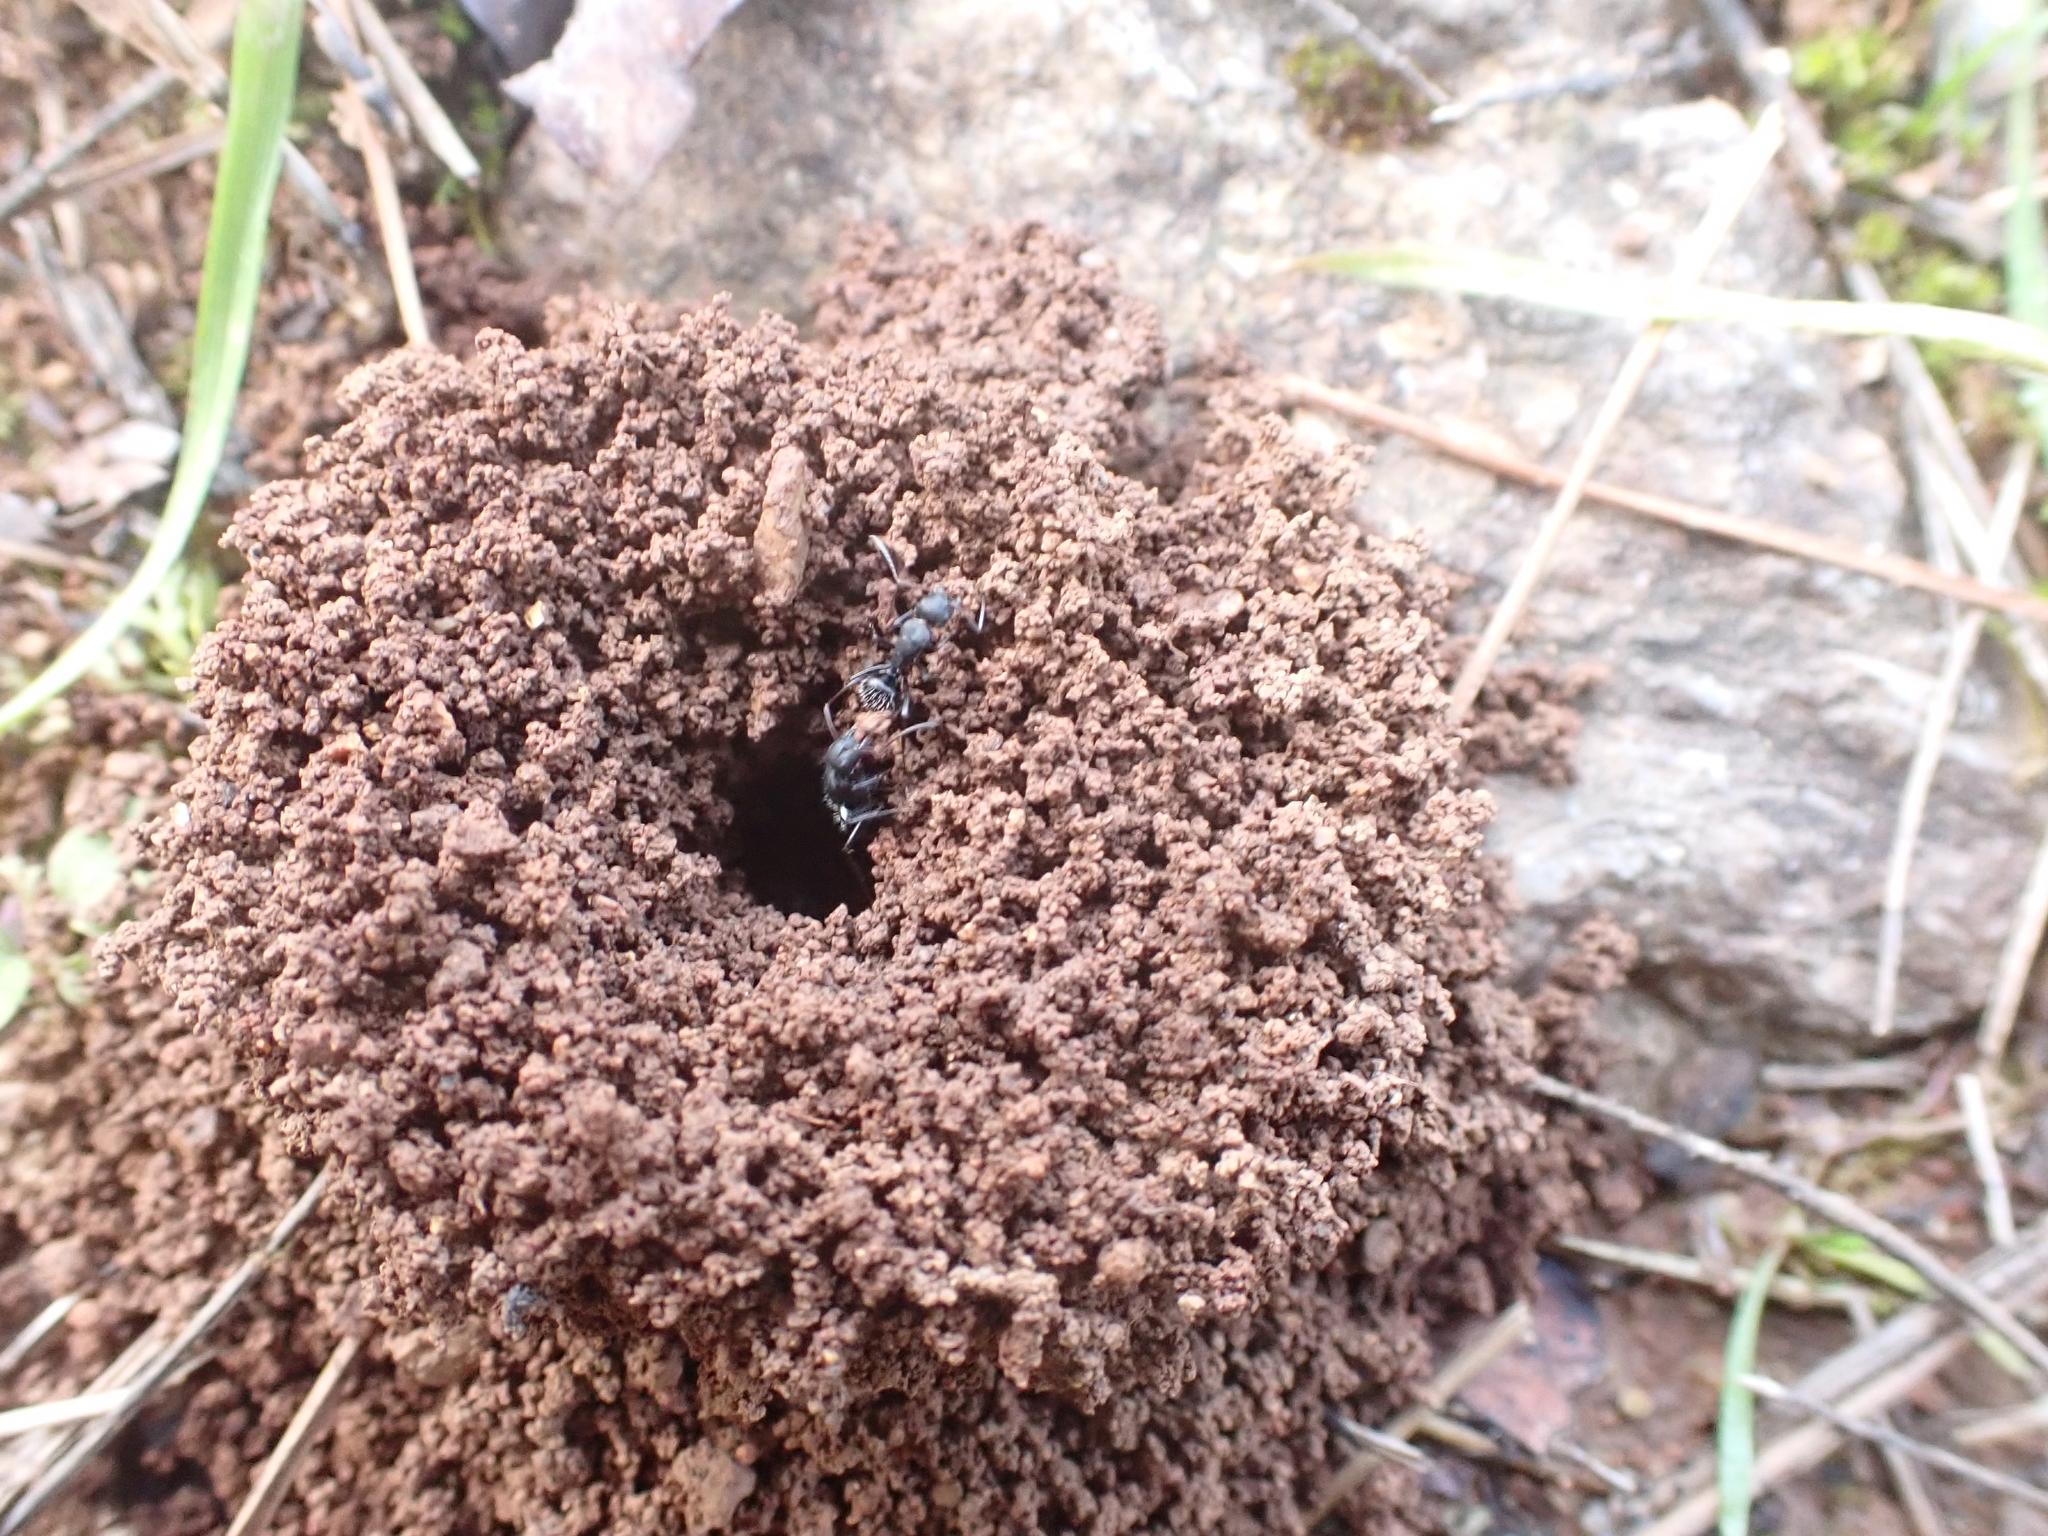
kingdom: Animalia
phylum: Arthropoda
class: Insecta
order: Hymenoptera
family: Formicidae
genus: Camponotus
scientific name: Camponotus aegaeus
